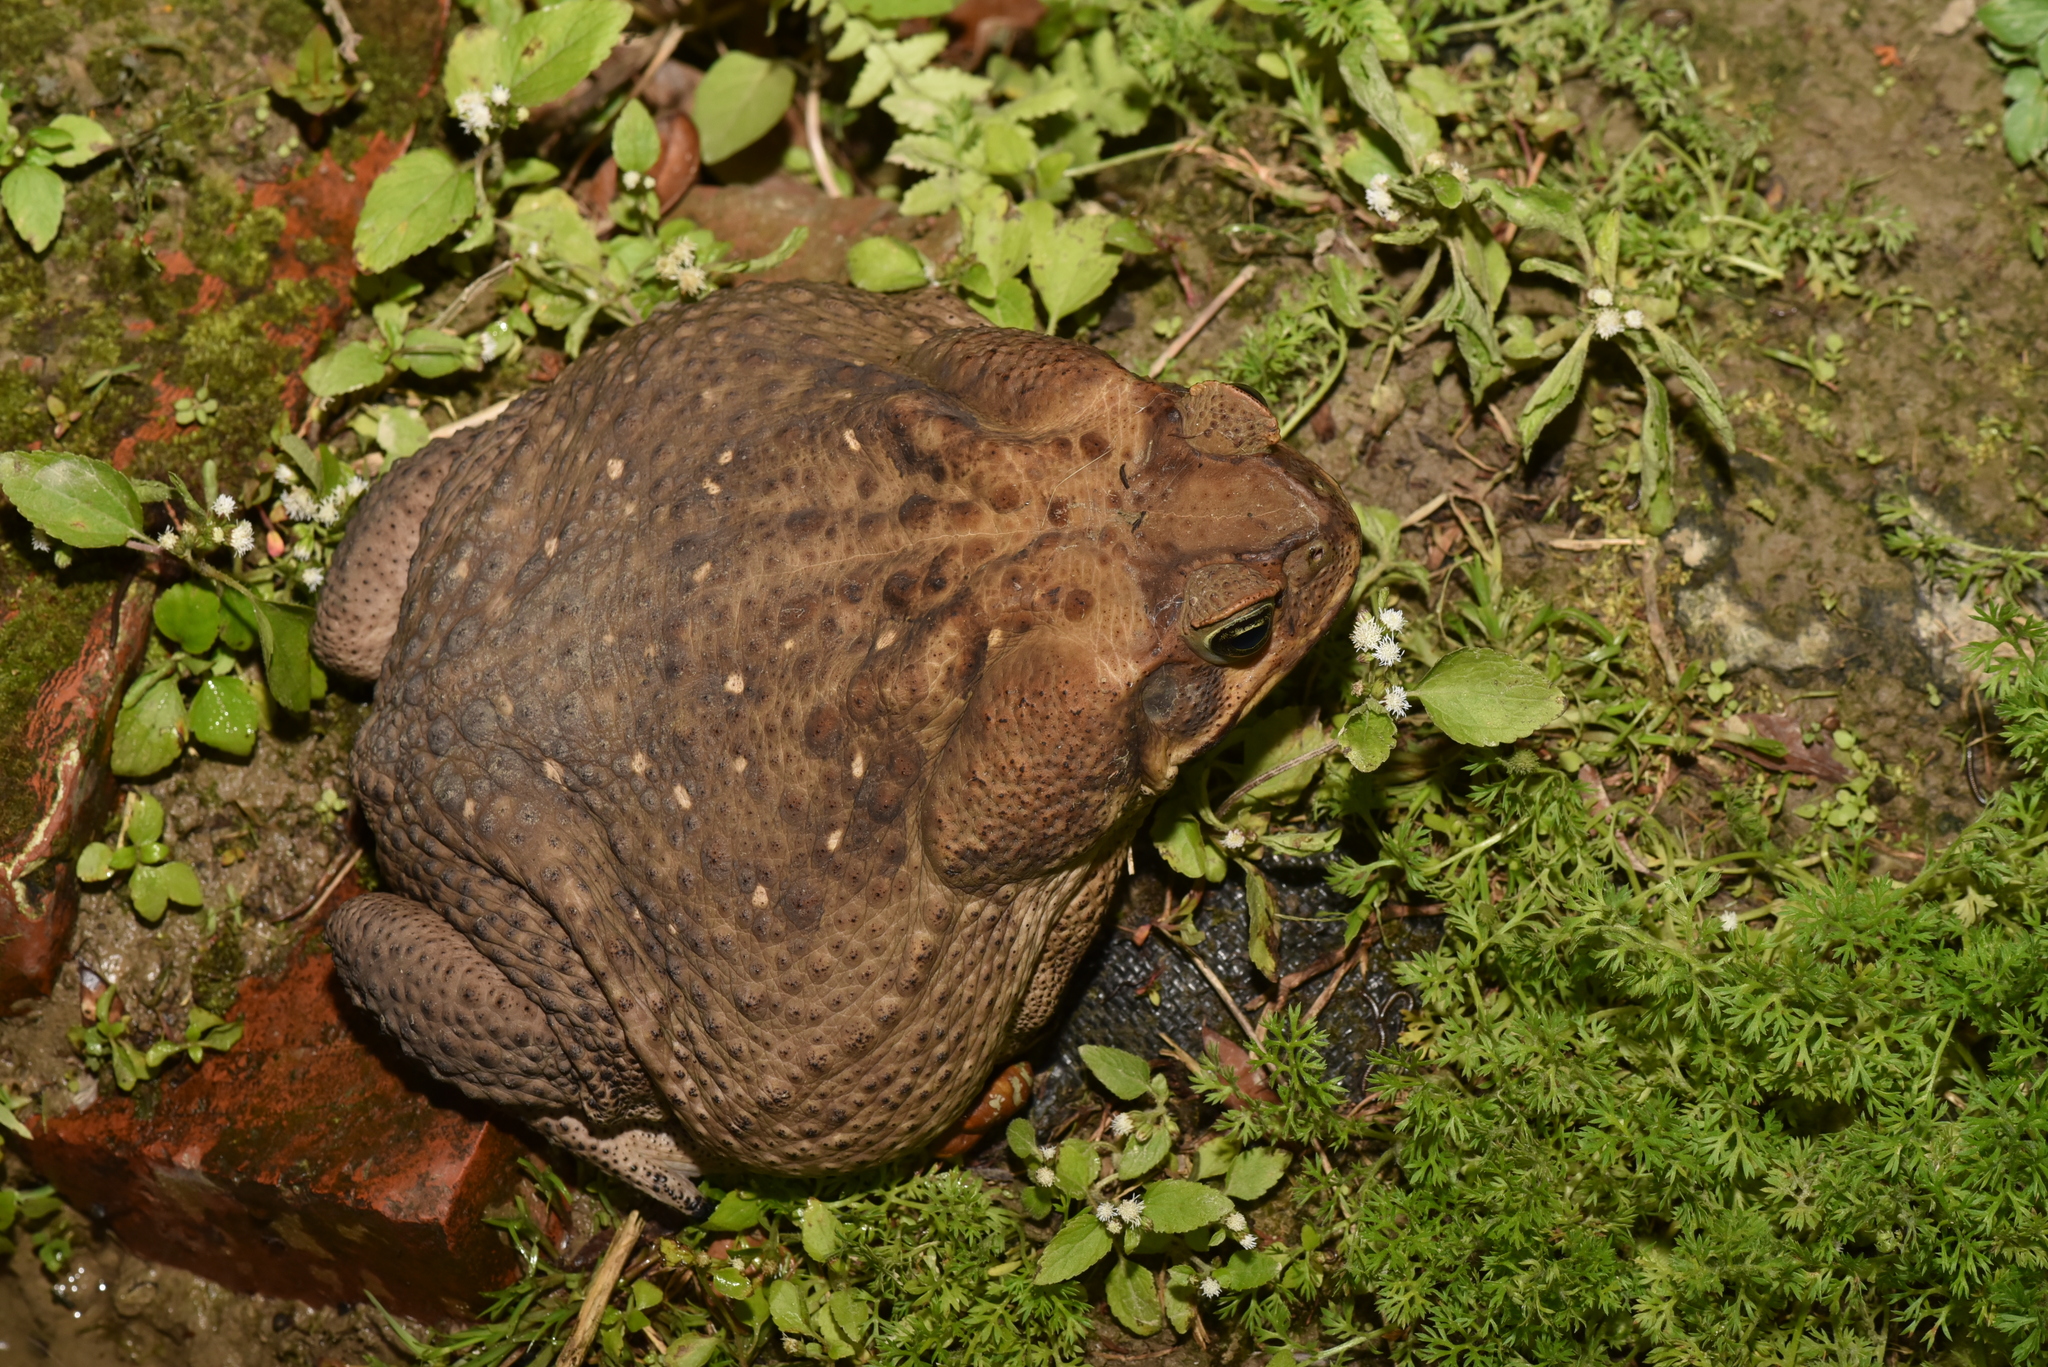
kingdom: Animalia
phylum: Chordata
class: Amphibia
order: Anura
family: Bufonidae
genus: Rhinella
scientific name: Rhinella marina
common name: Cane toad
